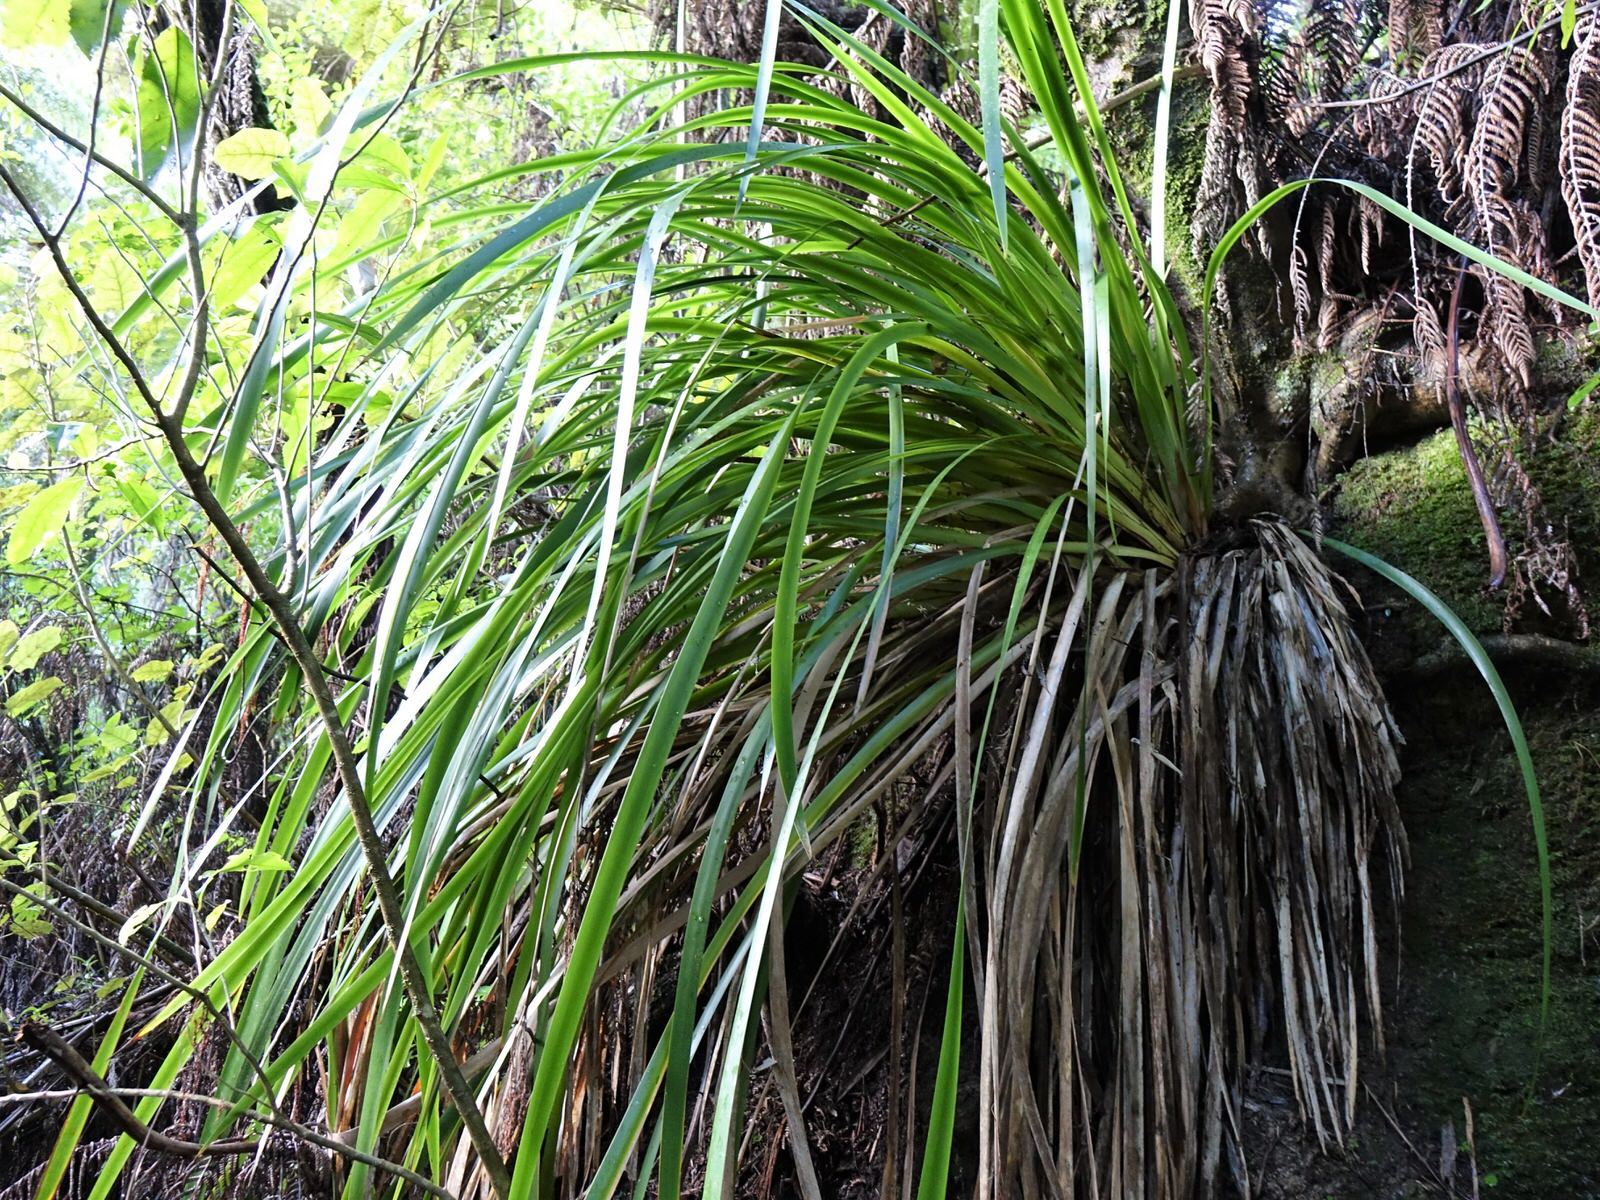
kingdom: Plantae
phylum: Tracheophyta
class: Liliopsida
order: Poales
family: Cyperaceae
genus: Machaerina
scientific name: Machaerina sinclairii
